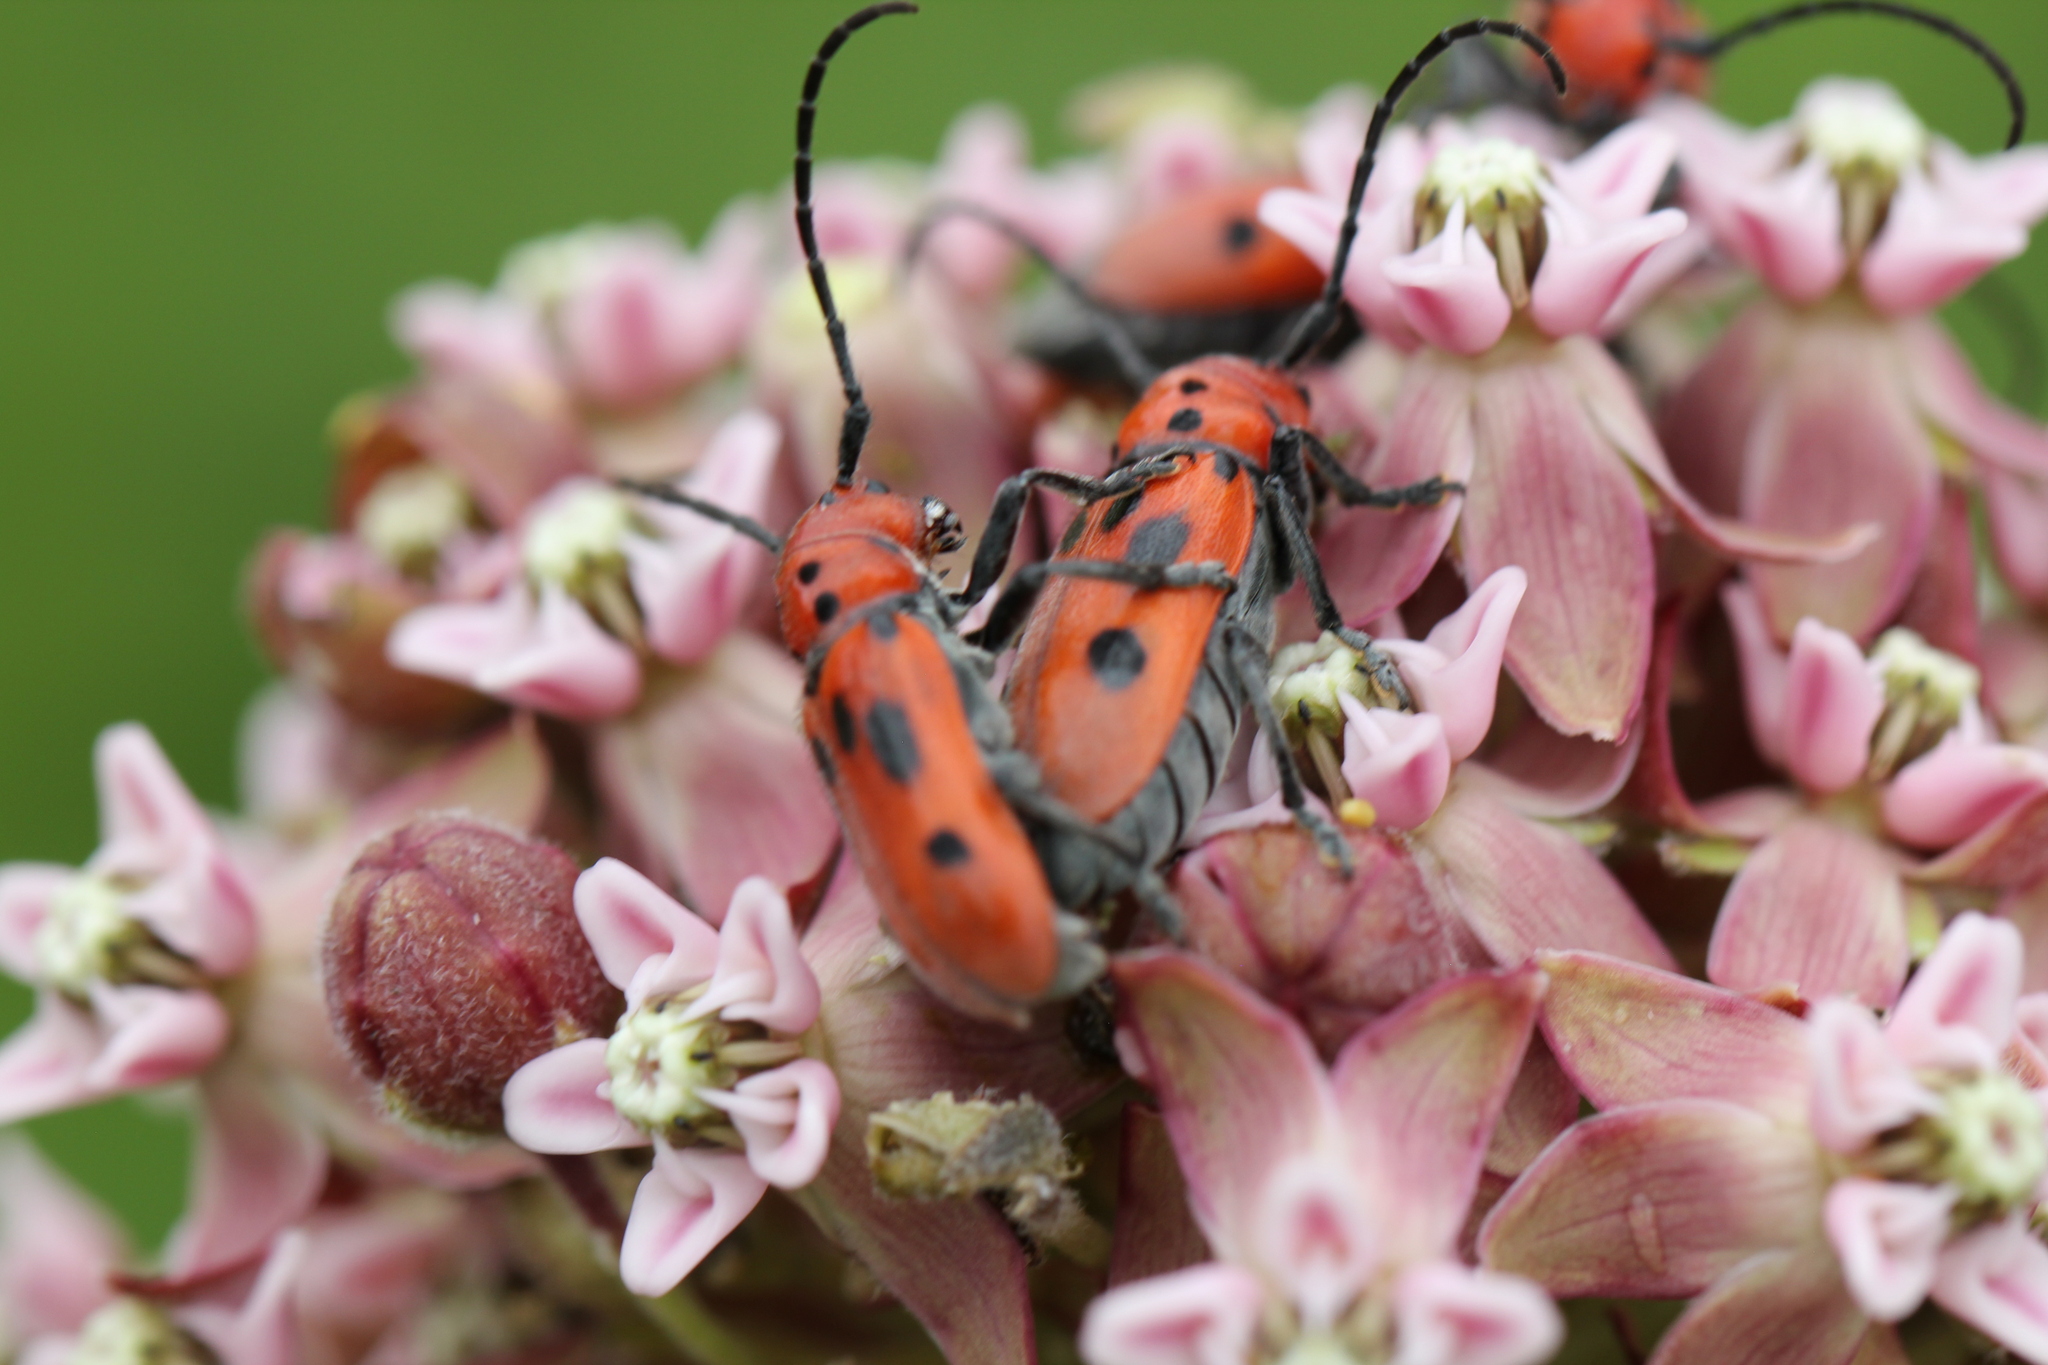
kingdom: Animalia
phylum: Arthropoda
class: Insecta
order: Coleoptera
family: Cerambycidae
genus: Tetraopes
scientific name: Tetraopes tetrophthalmus
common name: Red milkweed beetle
